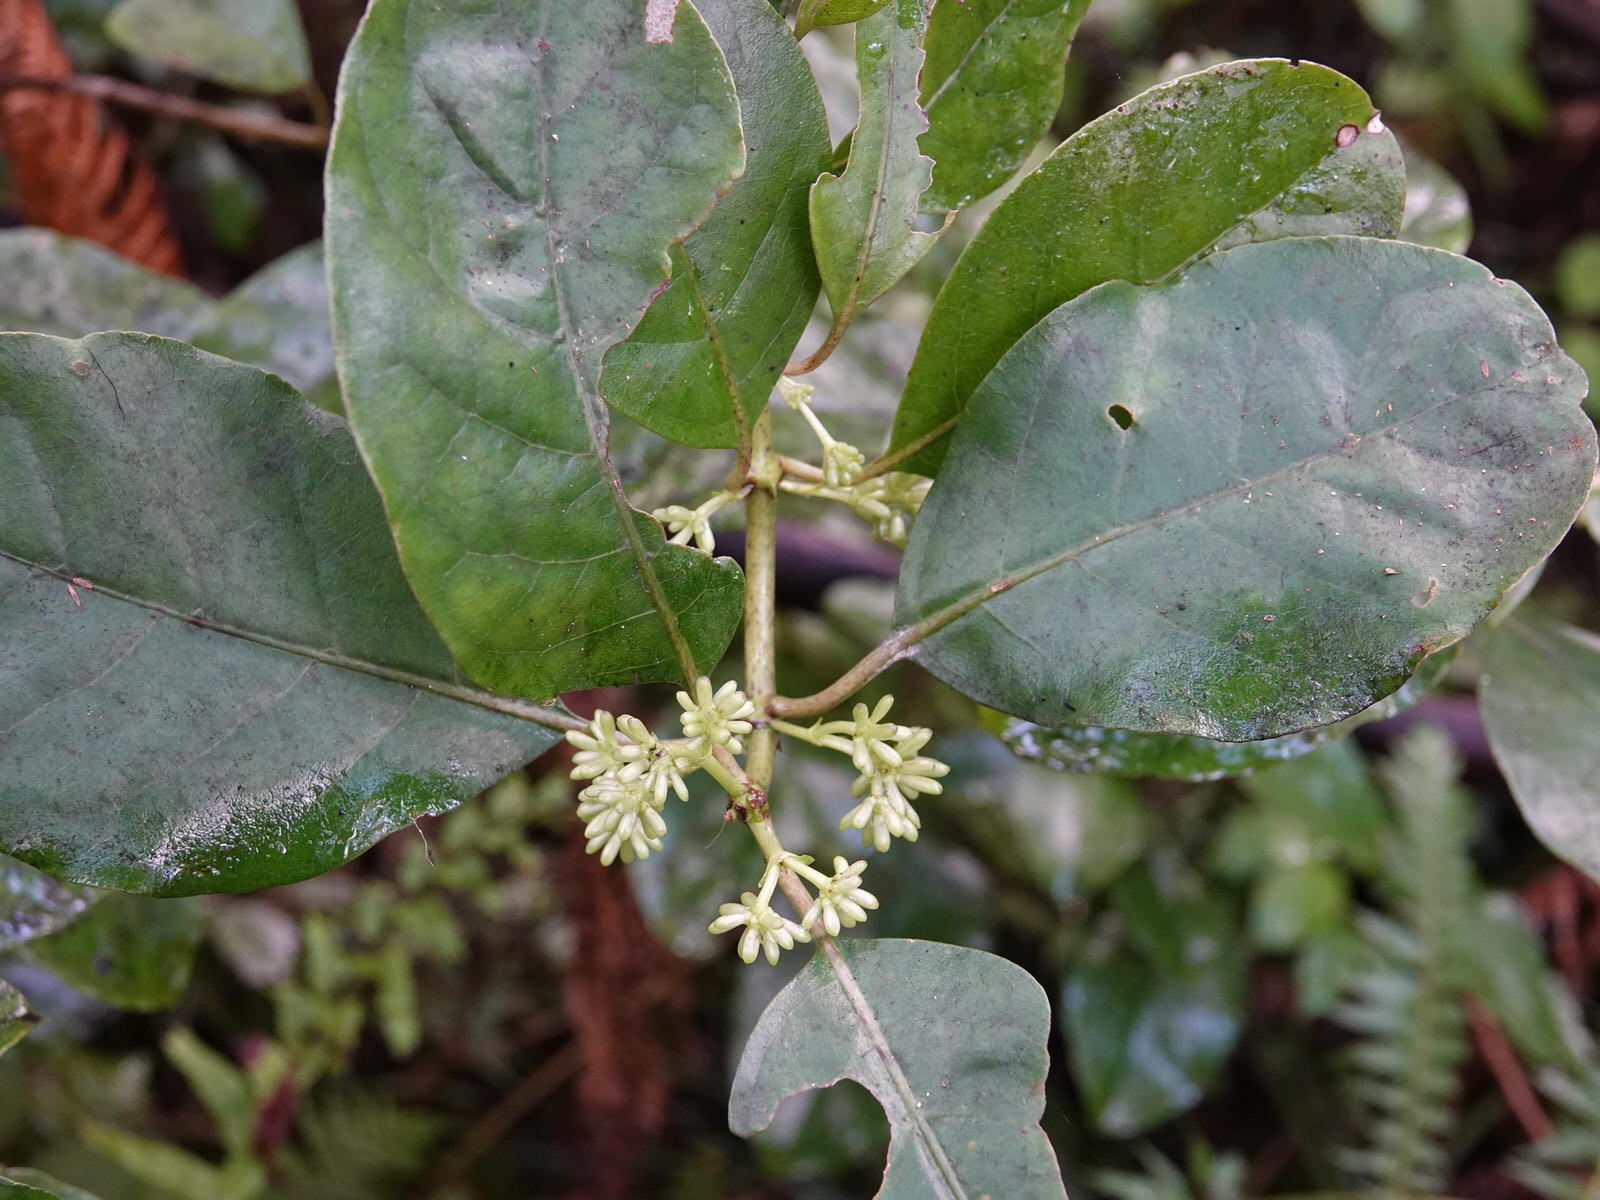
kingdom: Plantae
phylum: Tracheophyta
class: Magnoliopsida
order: Gentianales
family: Rubiaceae
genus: Coprosma
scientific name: Coprosma autumnalis
